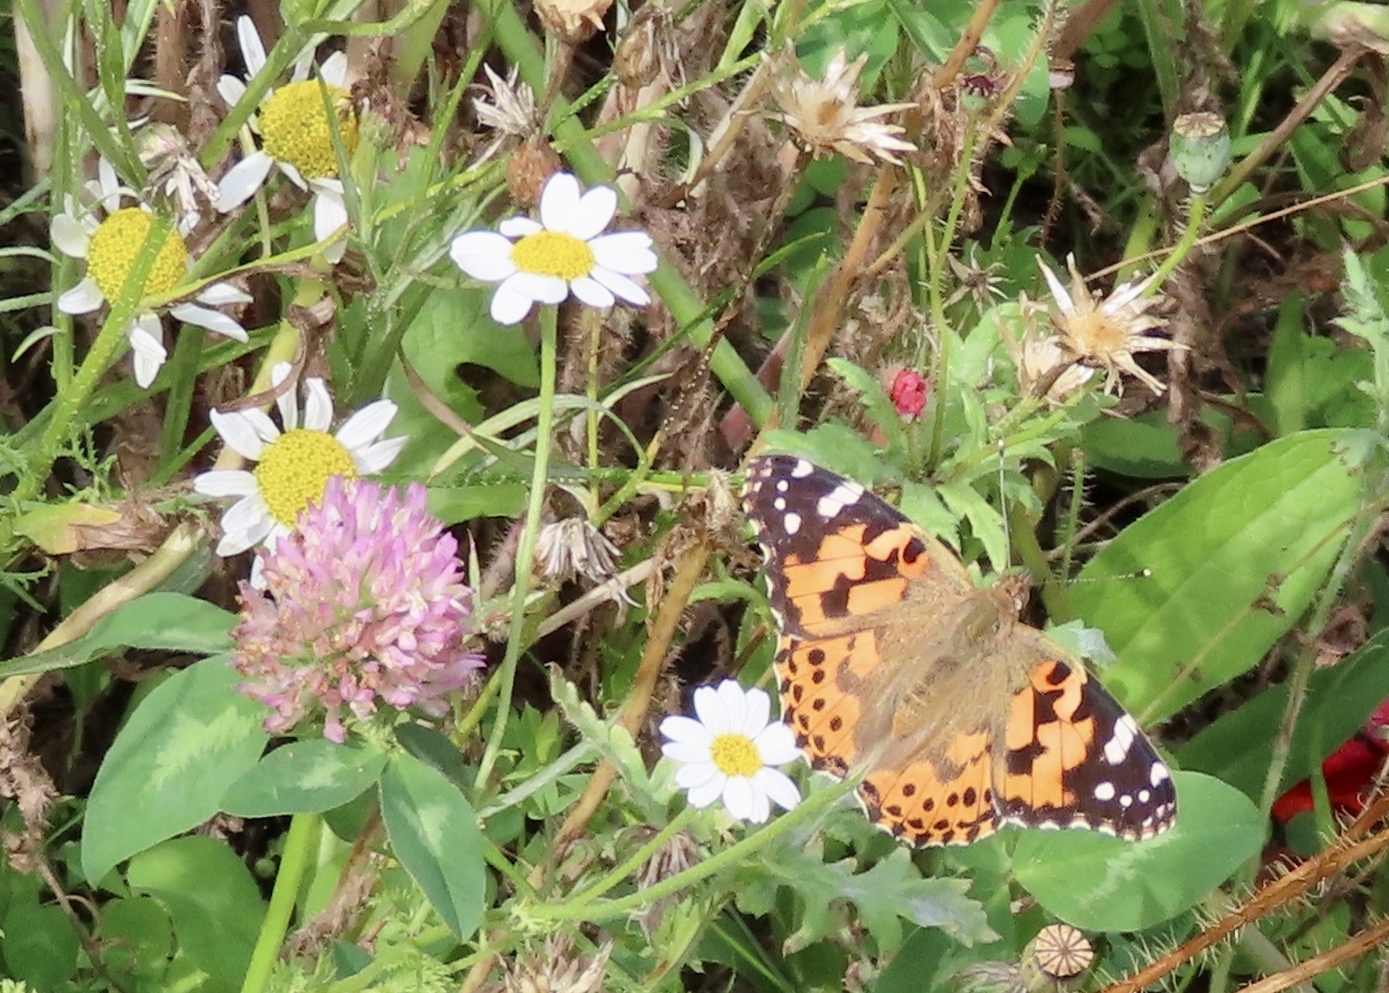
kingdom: Animalia
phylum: Arthropoda
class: Insecta
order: Lepidoptera
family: Nymphalidae
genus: Vanessa
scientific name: Vanessa cardui
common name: Painted lady
